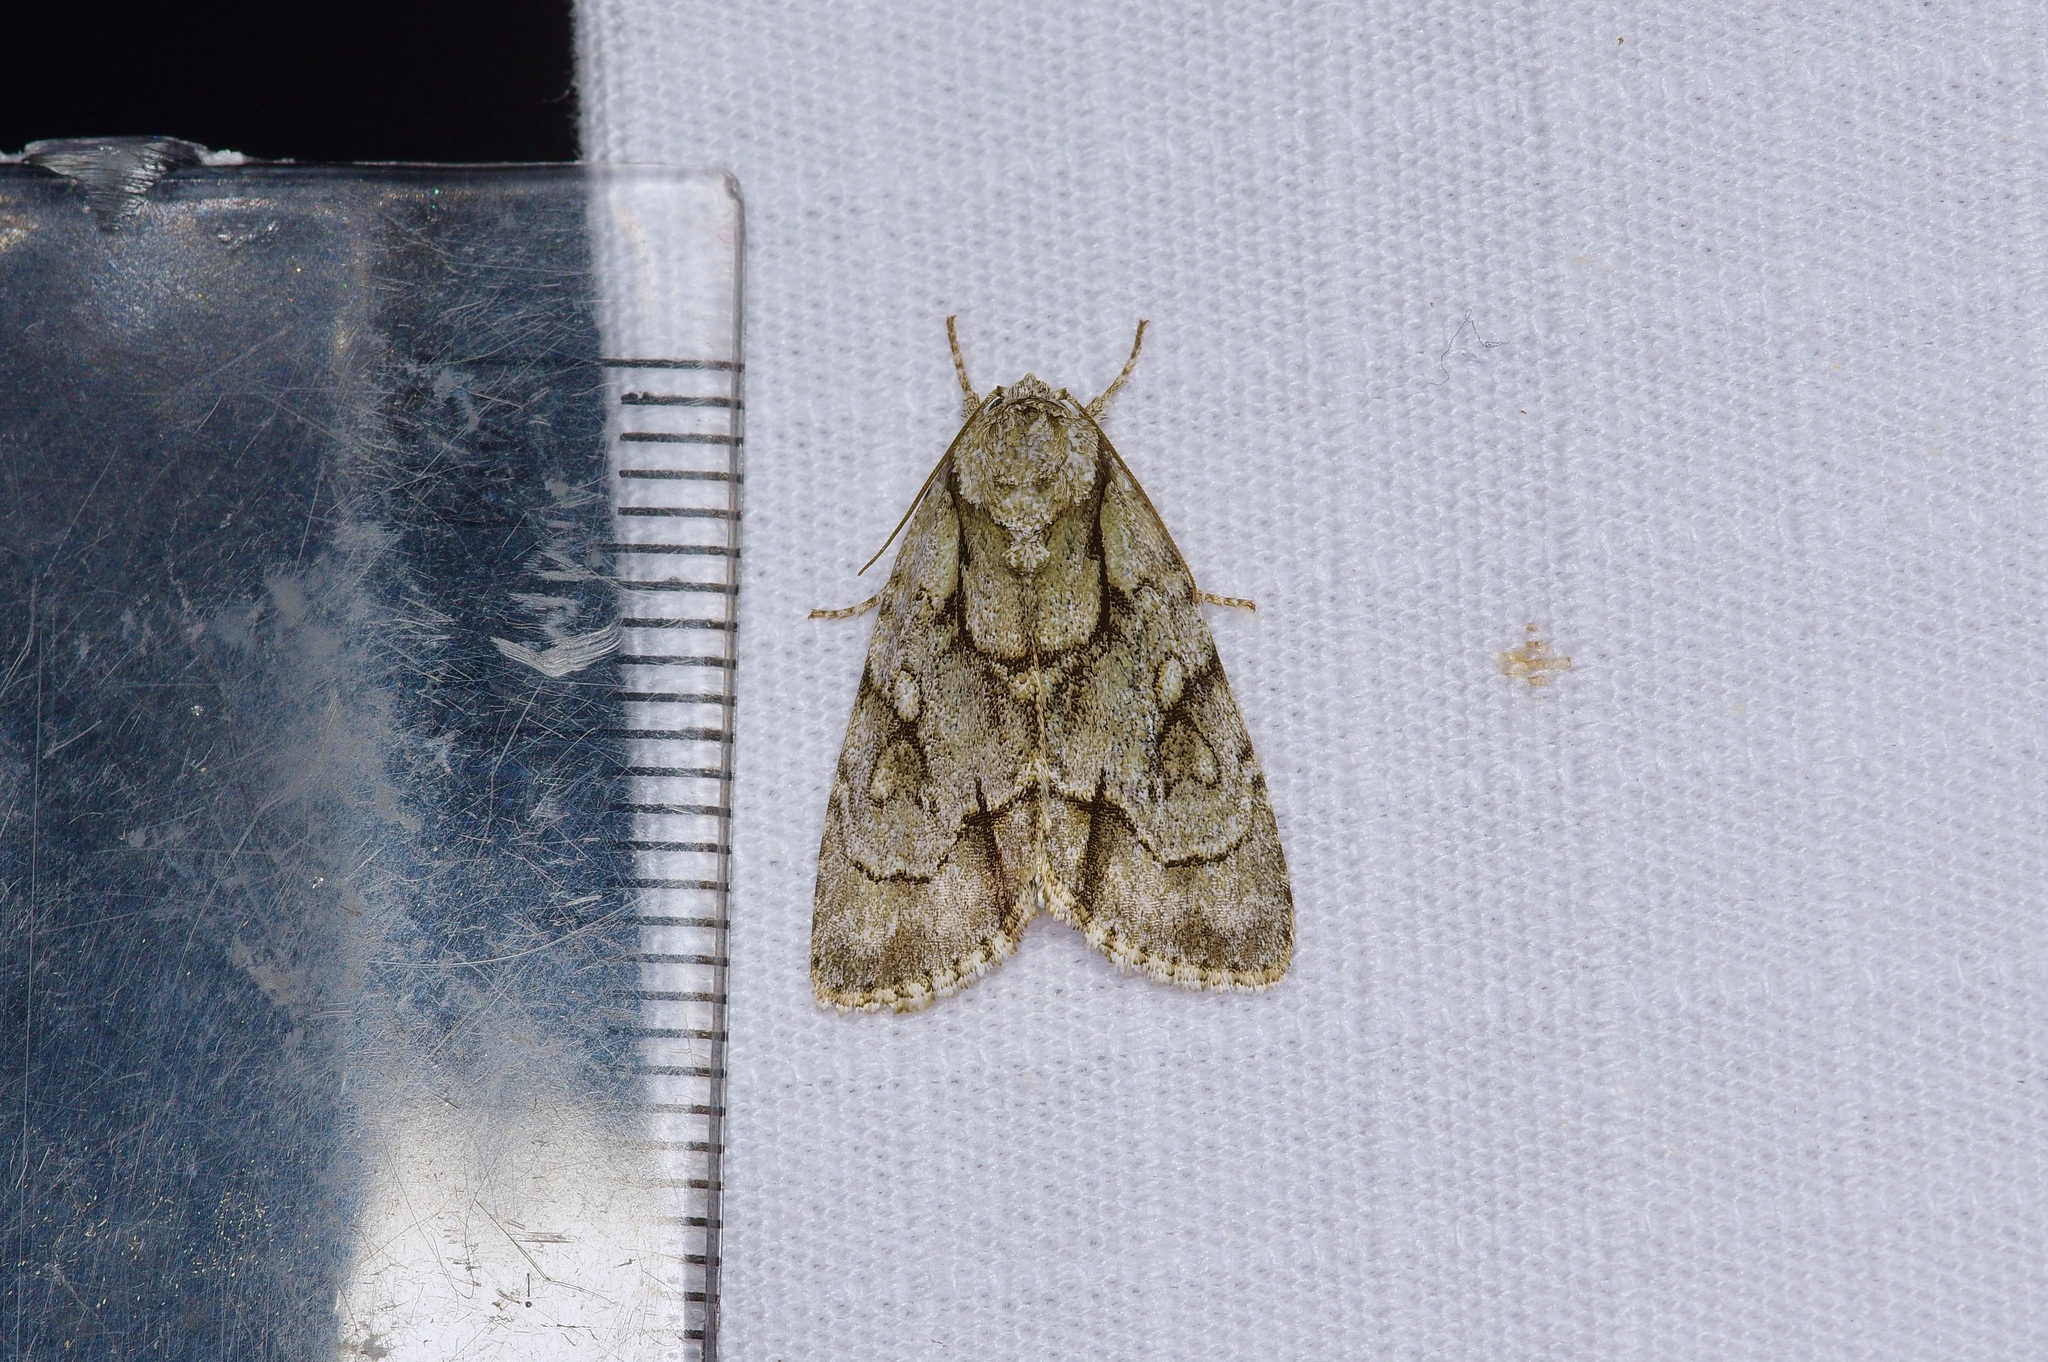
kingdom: Animalia
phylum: Arthropoda
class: Insecta
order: Lepidoptera
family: Noctuidae
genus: Acronicta
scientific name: Acronicta vinnula
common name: Delightful dagger
